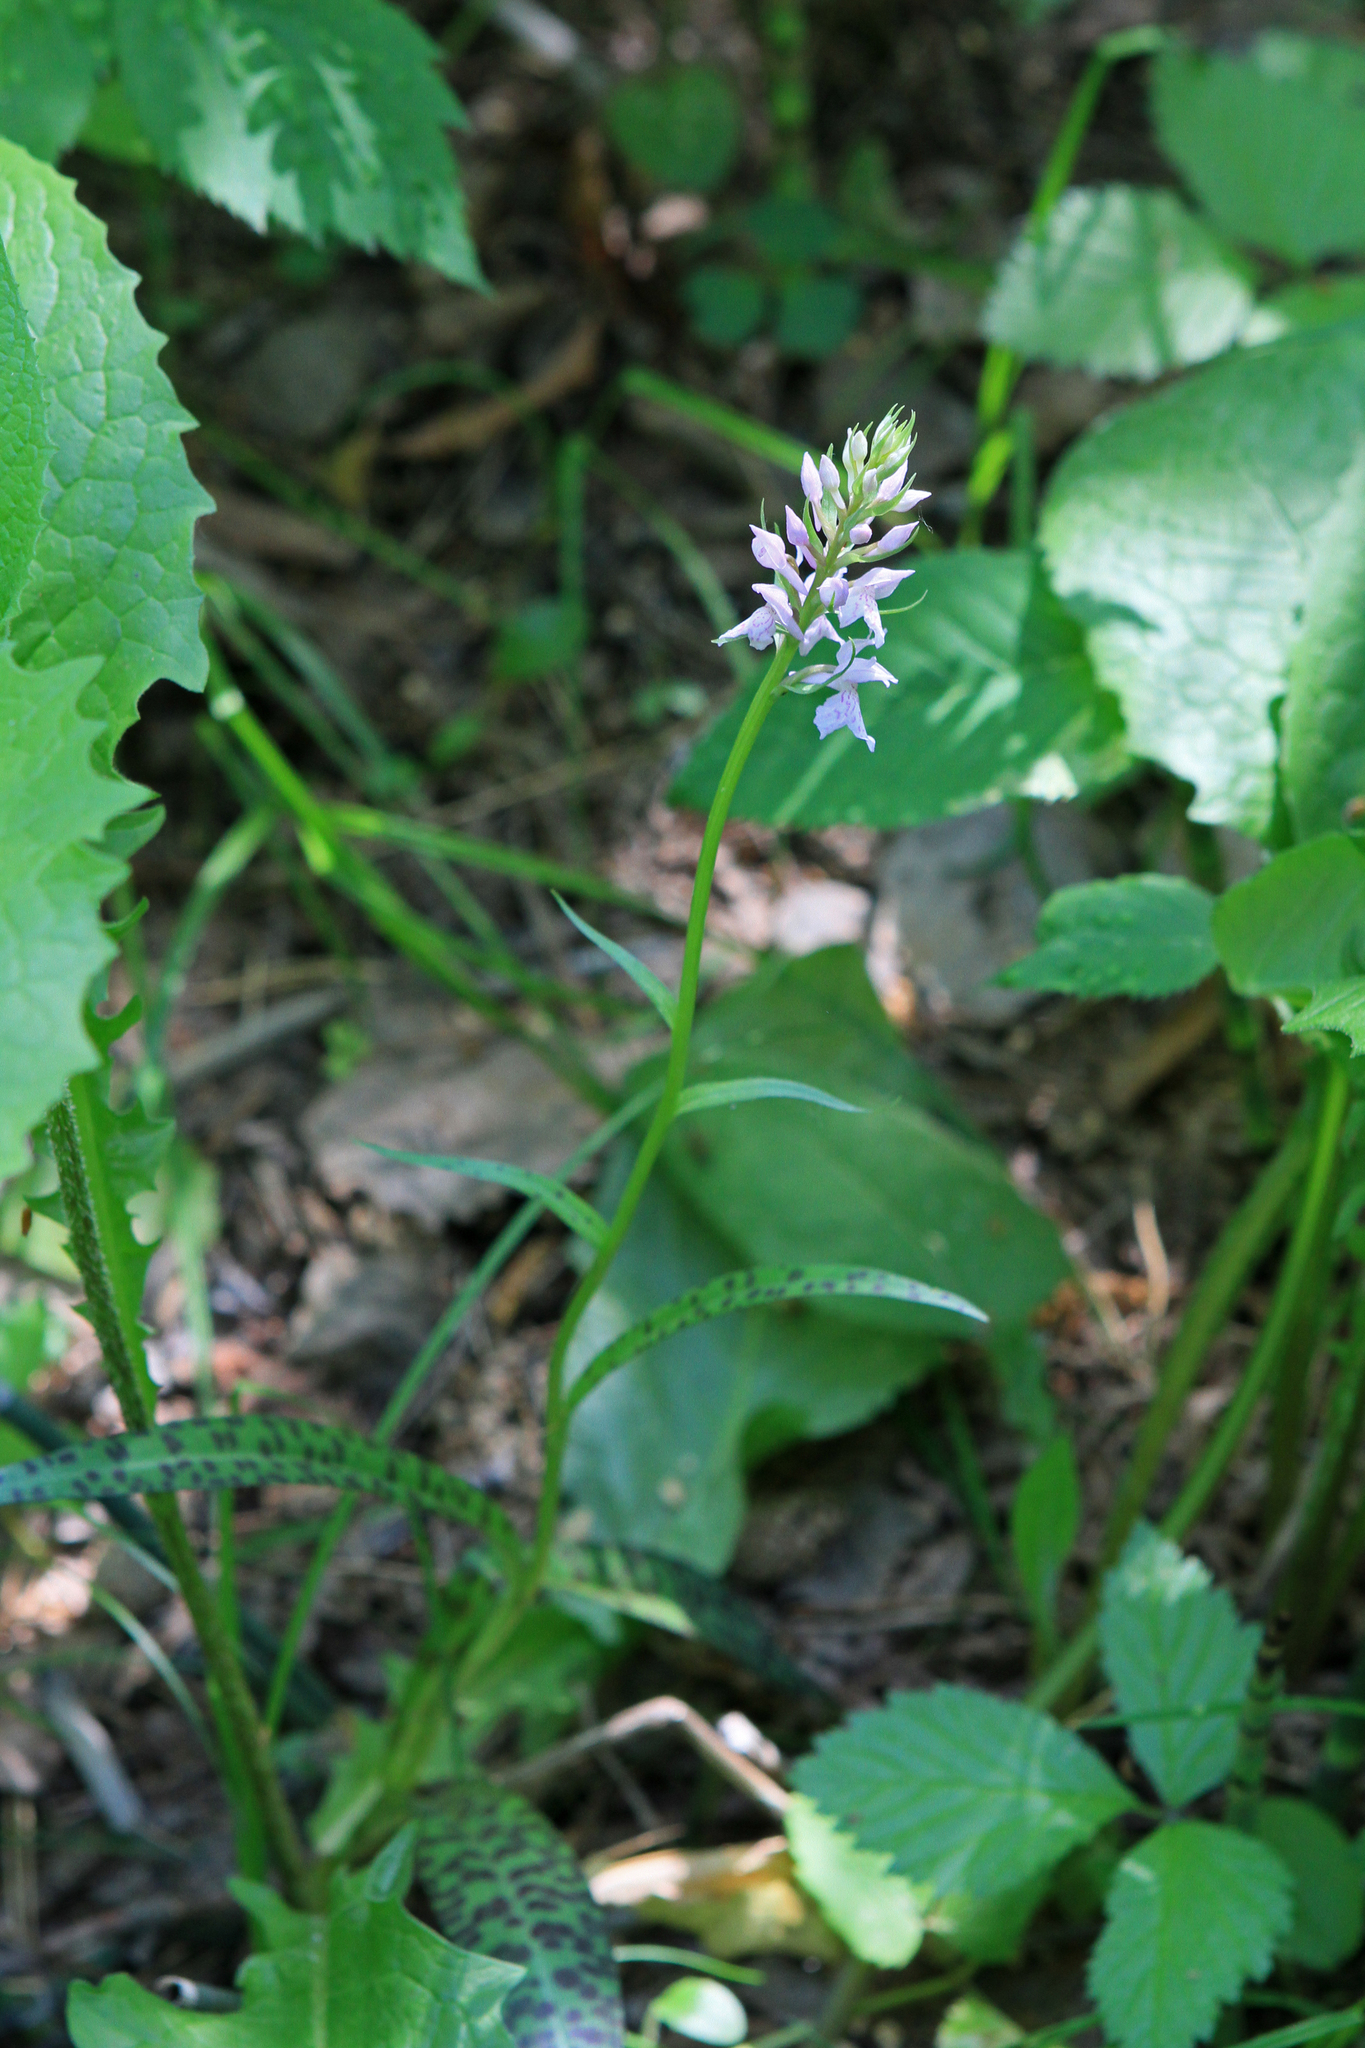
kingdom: Plantae
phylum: Tracheophyta
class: Liliopsida
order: Asparagales
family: Orchidaceae
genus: Dactylorhiza
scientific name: Dactylorhiza maculata
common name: Heath spotted-orchid
